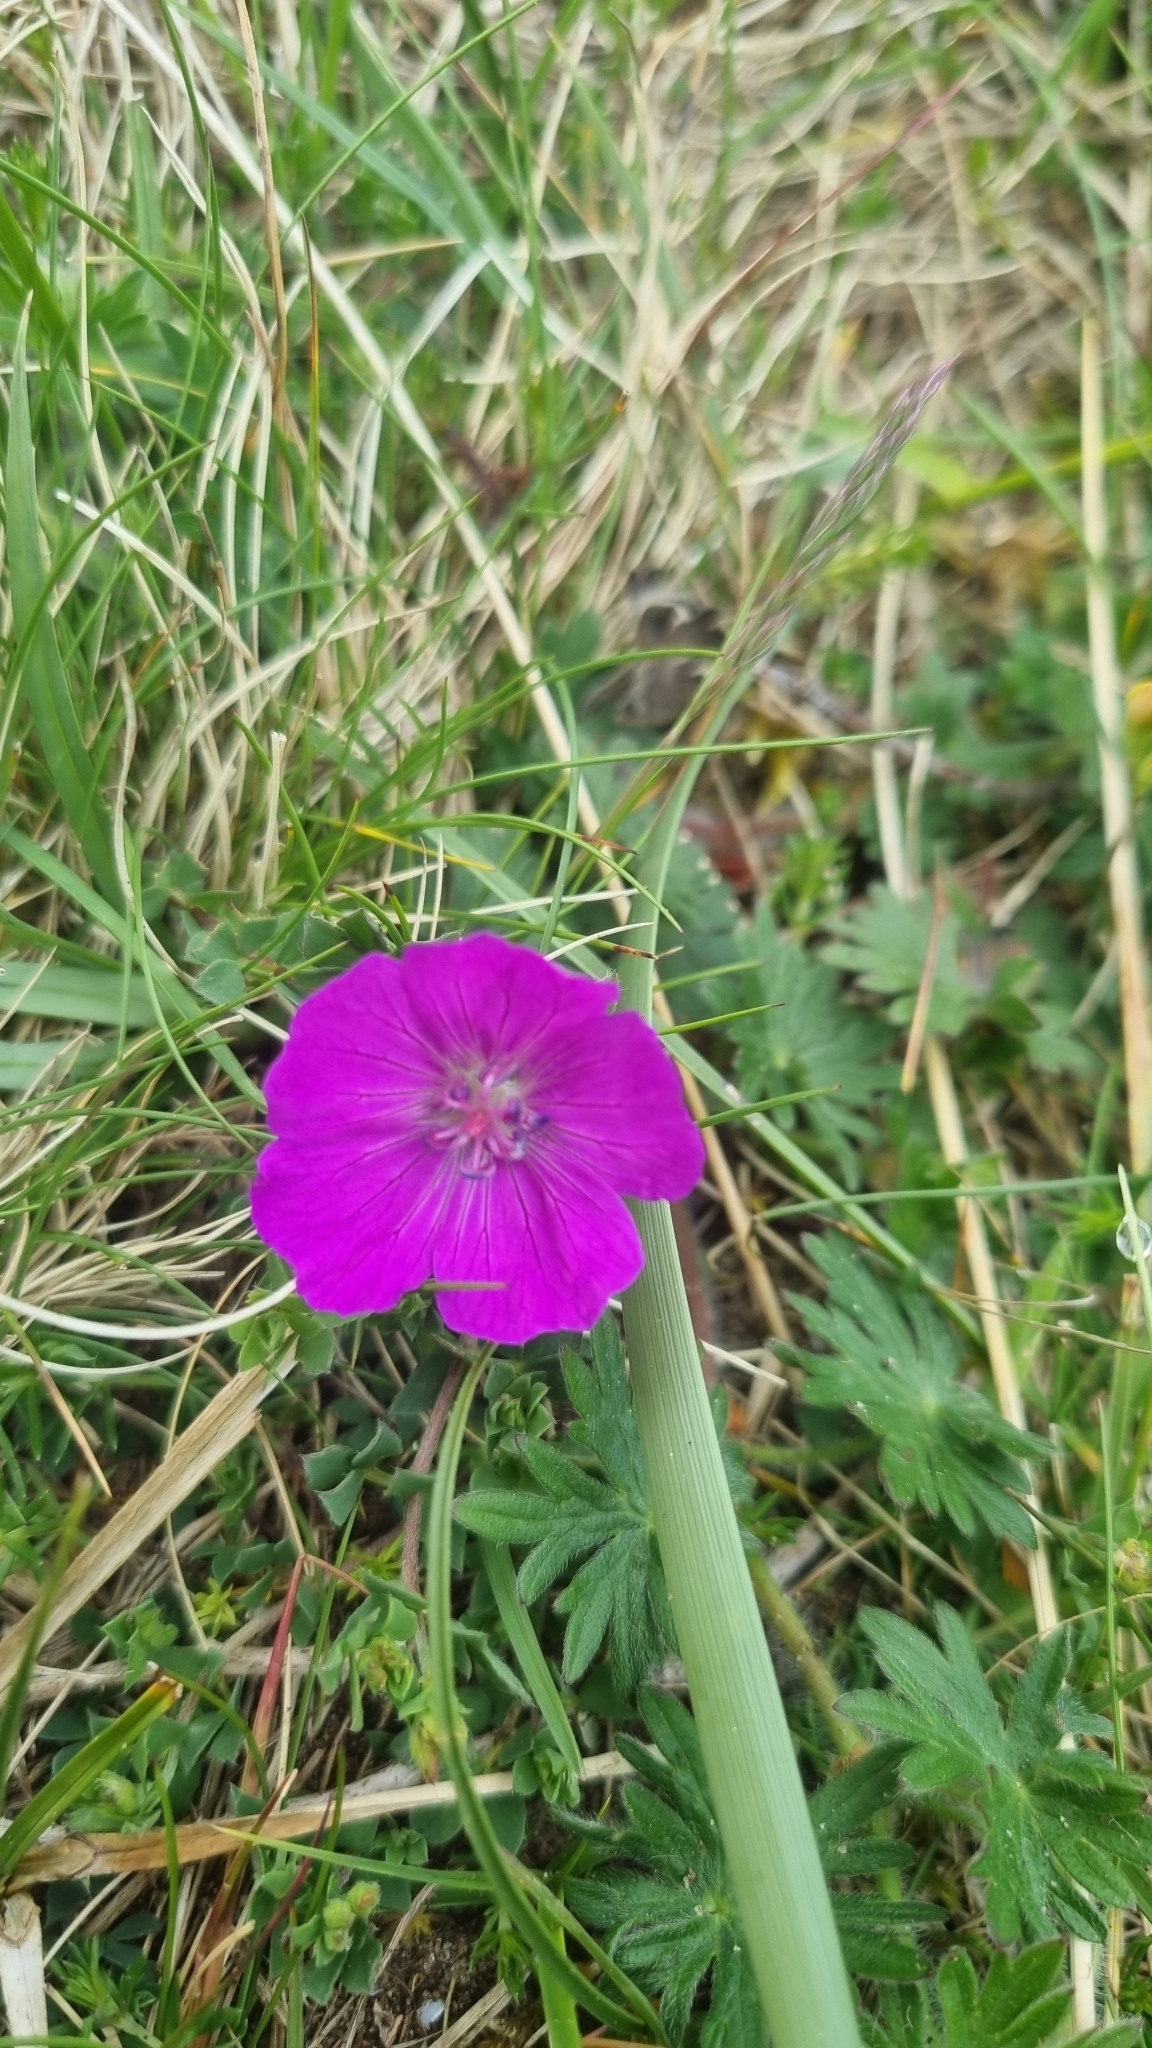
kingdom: Plantae
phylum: Tracheophyta
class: Magnoliopsida
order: Geraniales
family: Geraniaceae
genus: Geranium
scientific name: Geranium sanguineum
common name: Bloody crane's-bill
